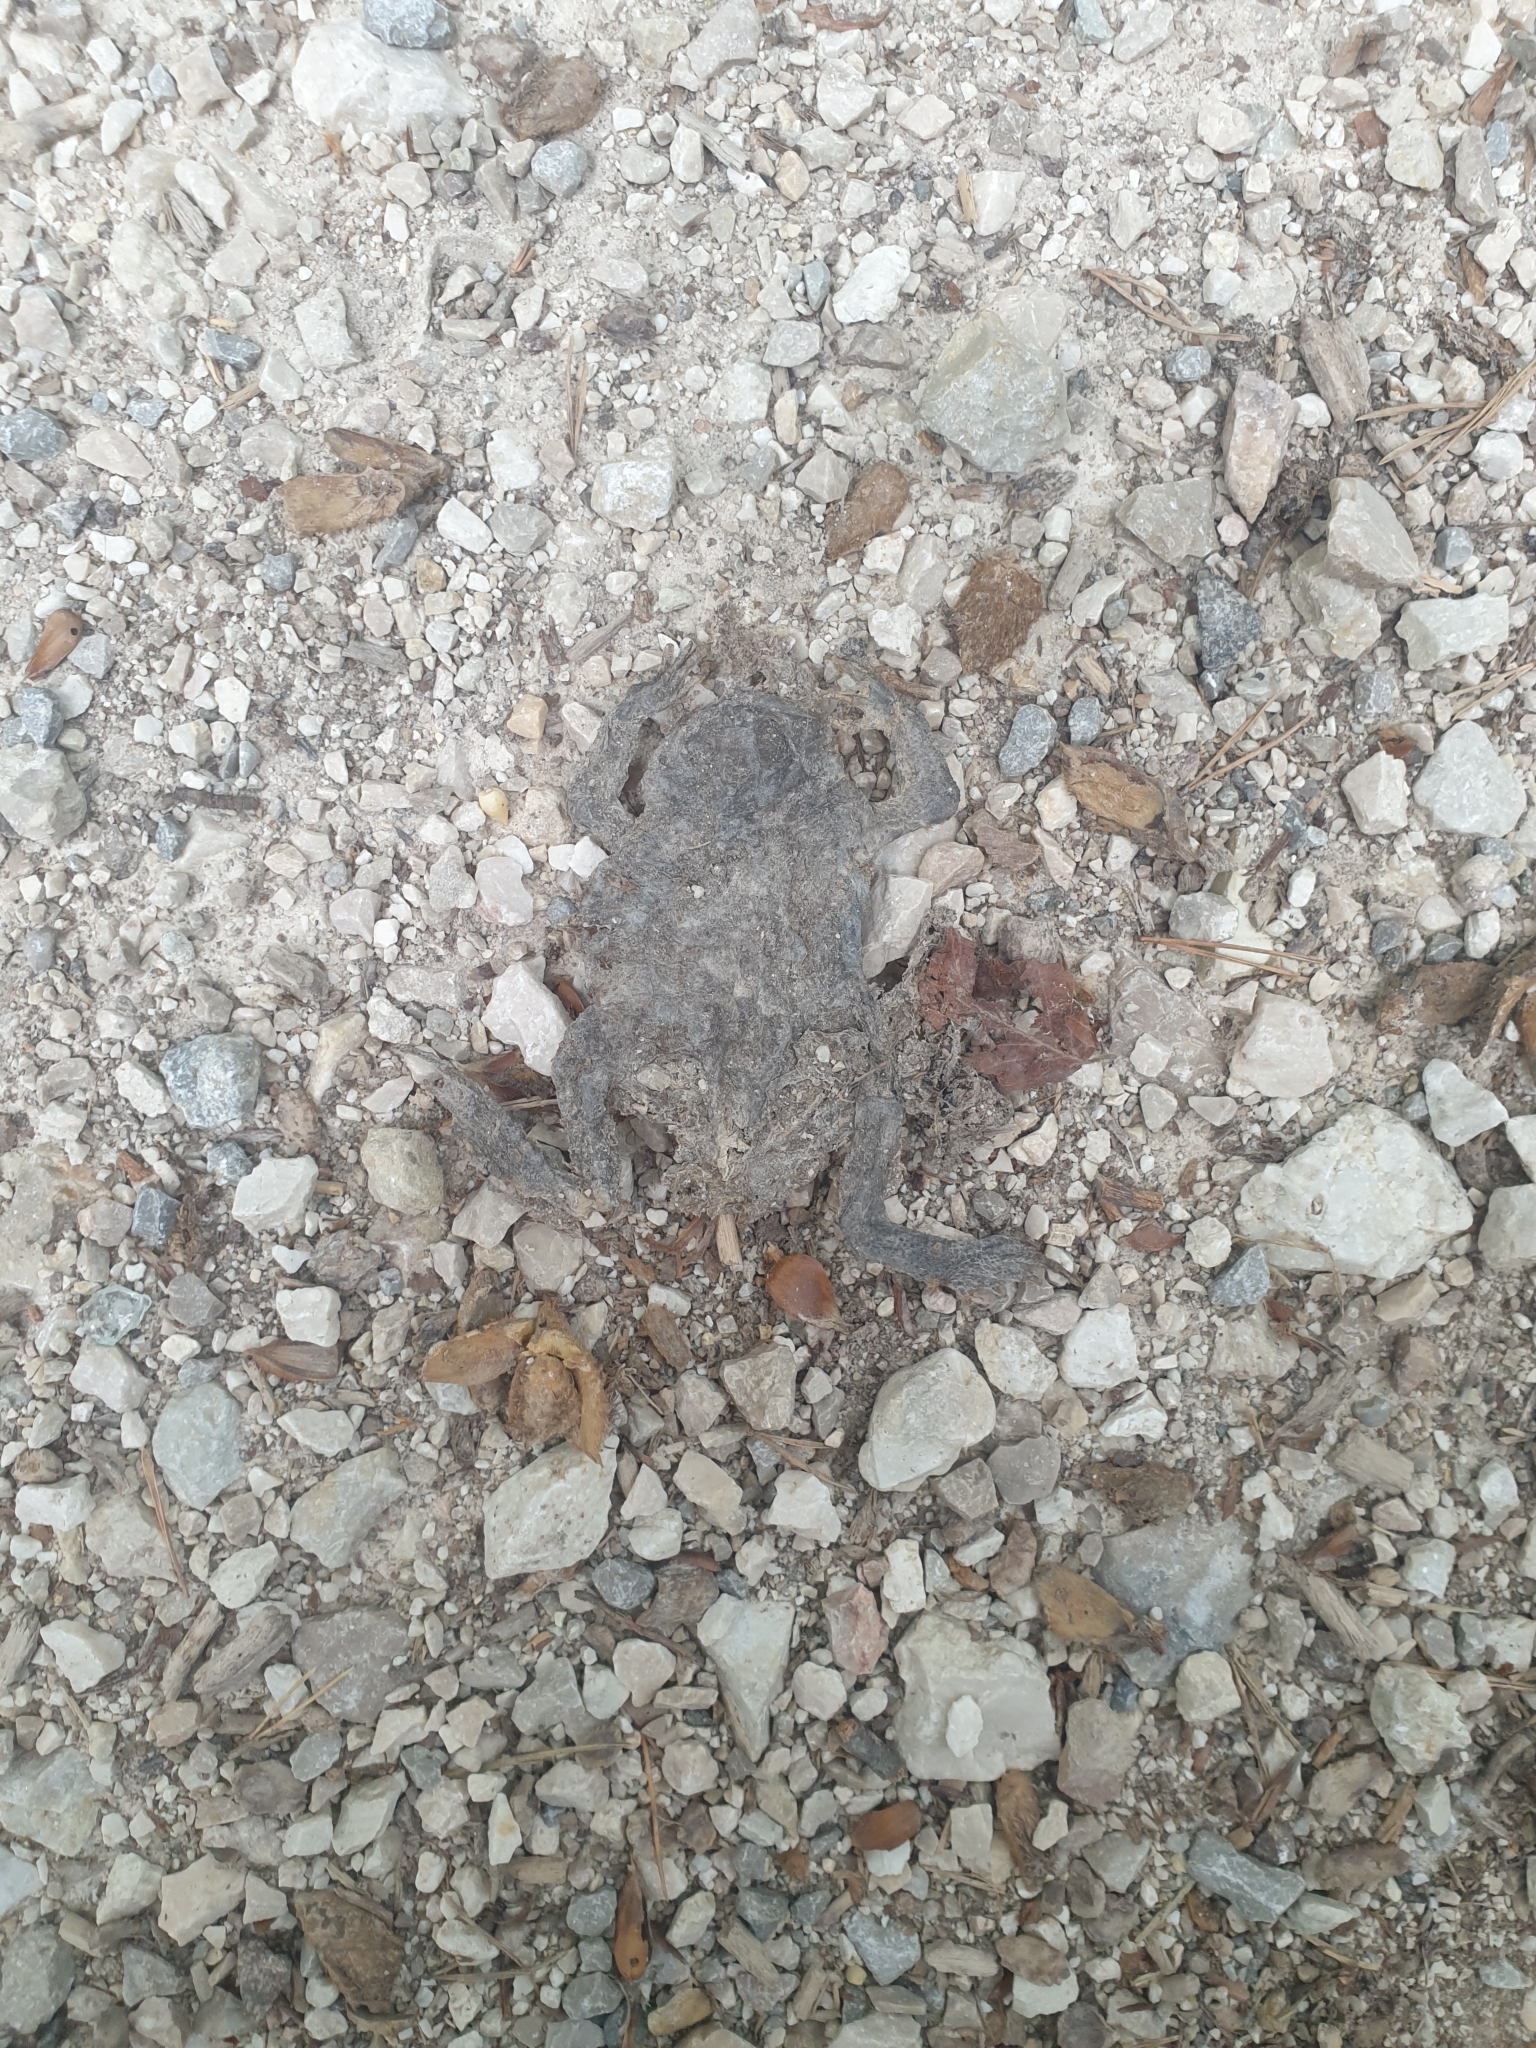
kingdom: Animalia
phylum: Chordata
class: Amphibia
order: Anura
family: Bufonidae
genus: Bufo
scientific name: Bufo bufo
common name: Common toad
